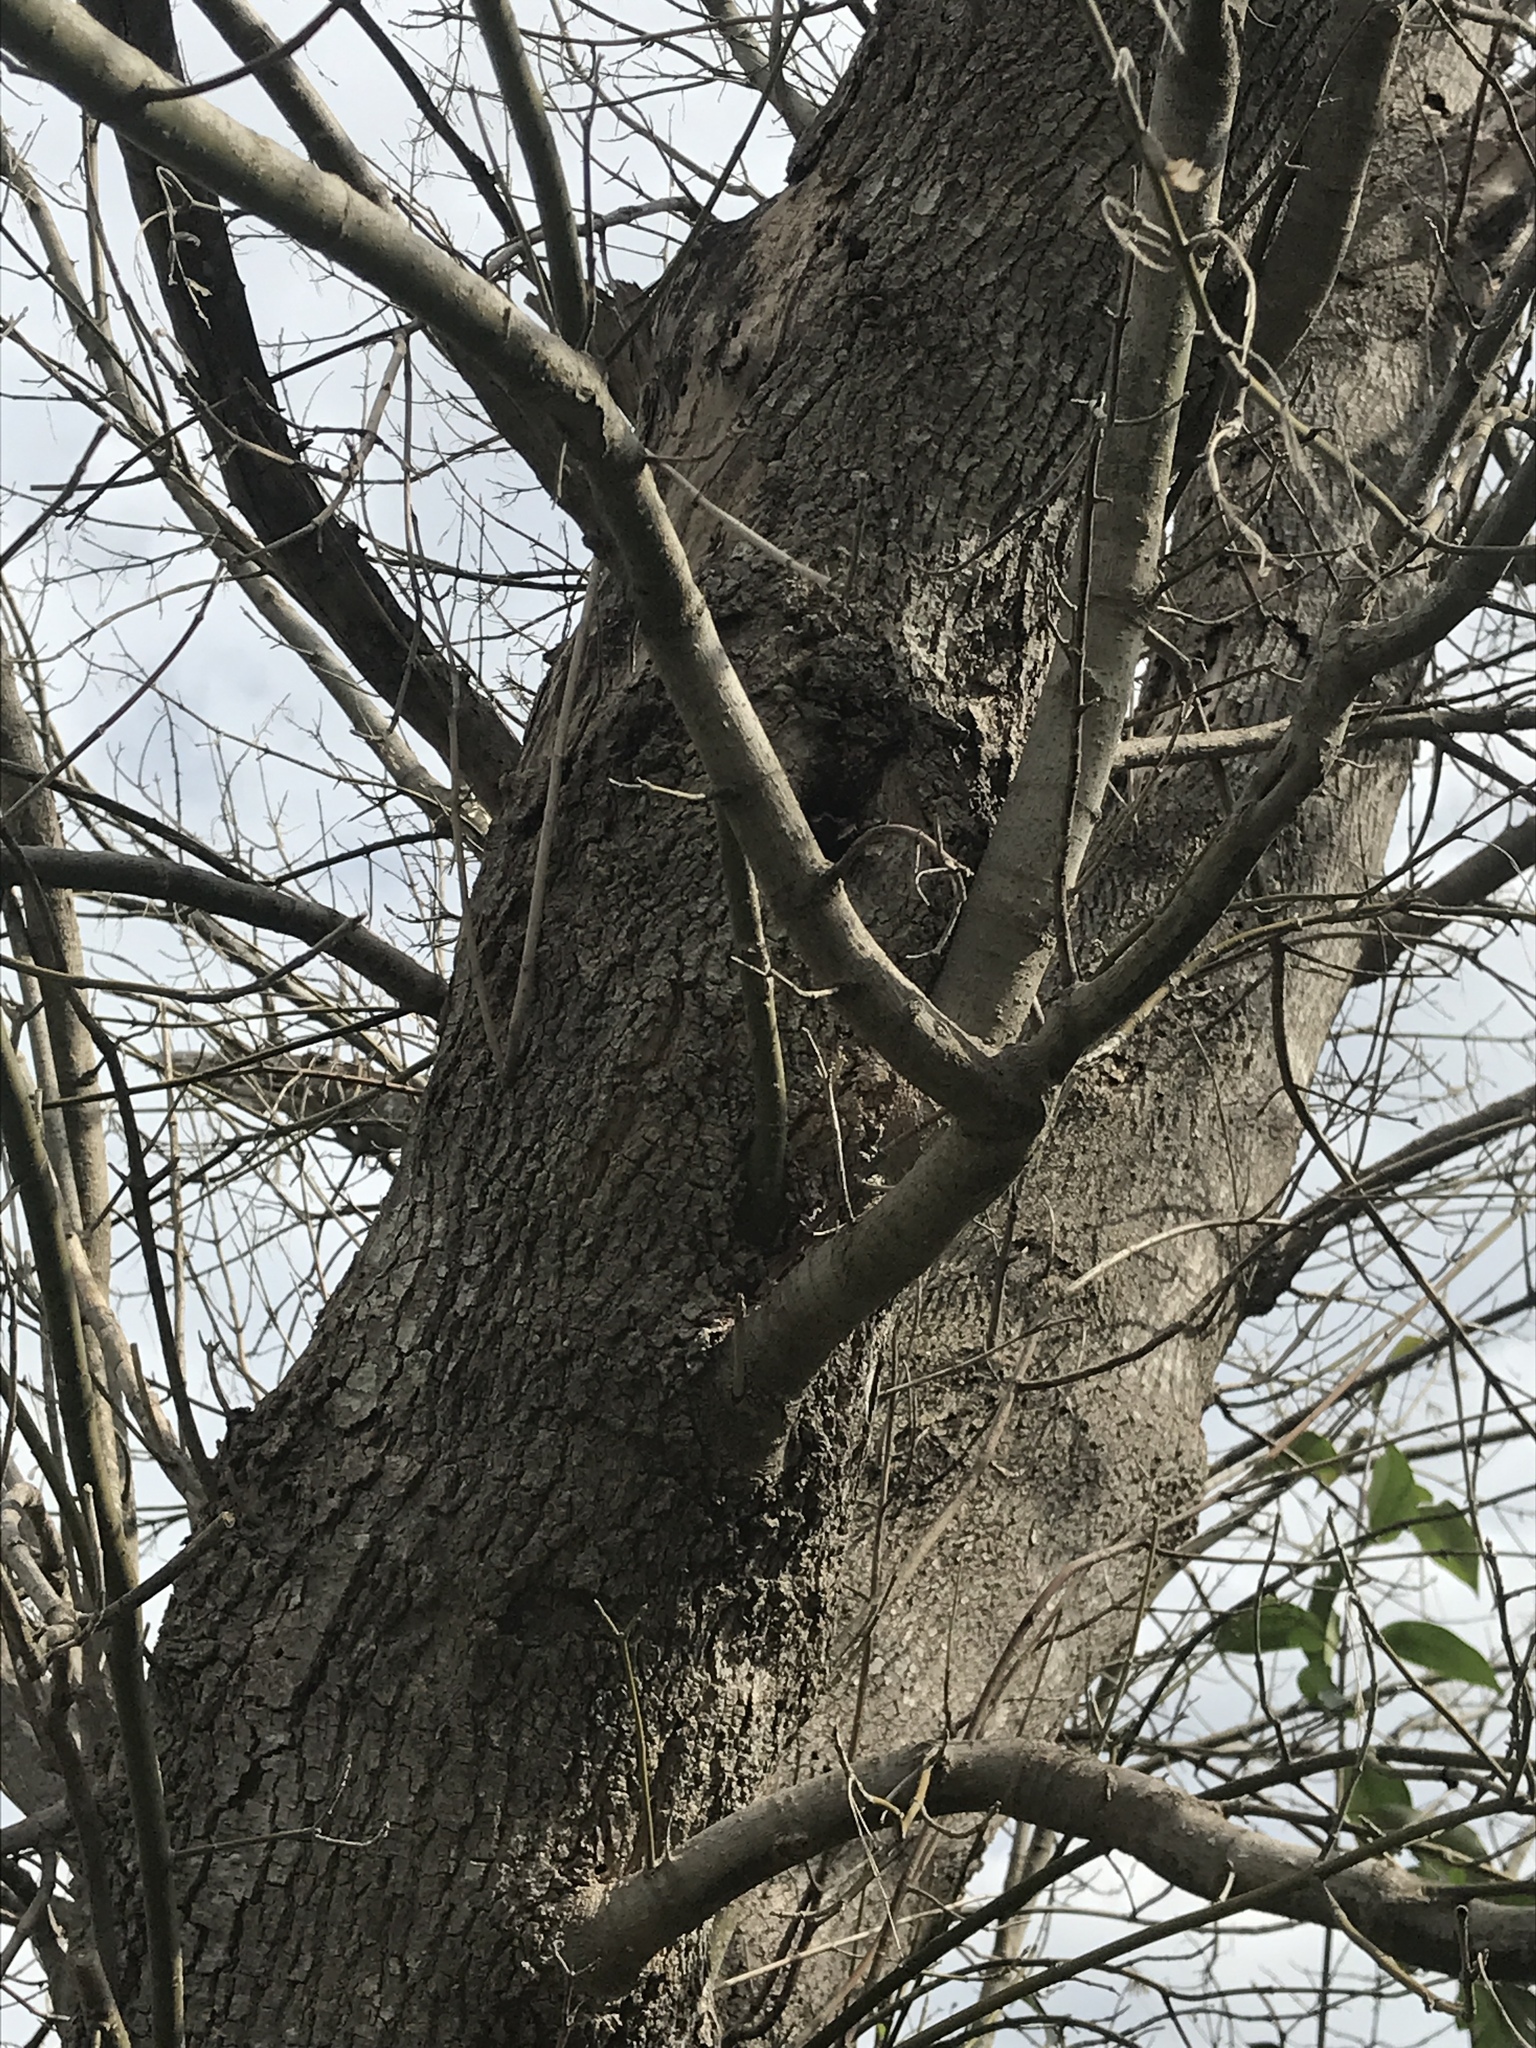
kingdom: Plantae
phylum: Tracheophyta
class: Magnoliopsida
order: Sapindales
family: Sapindaceae
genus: Acer
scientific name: Acer negundo
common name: Ashleaf maple
